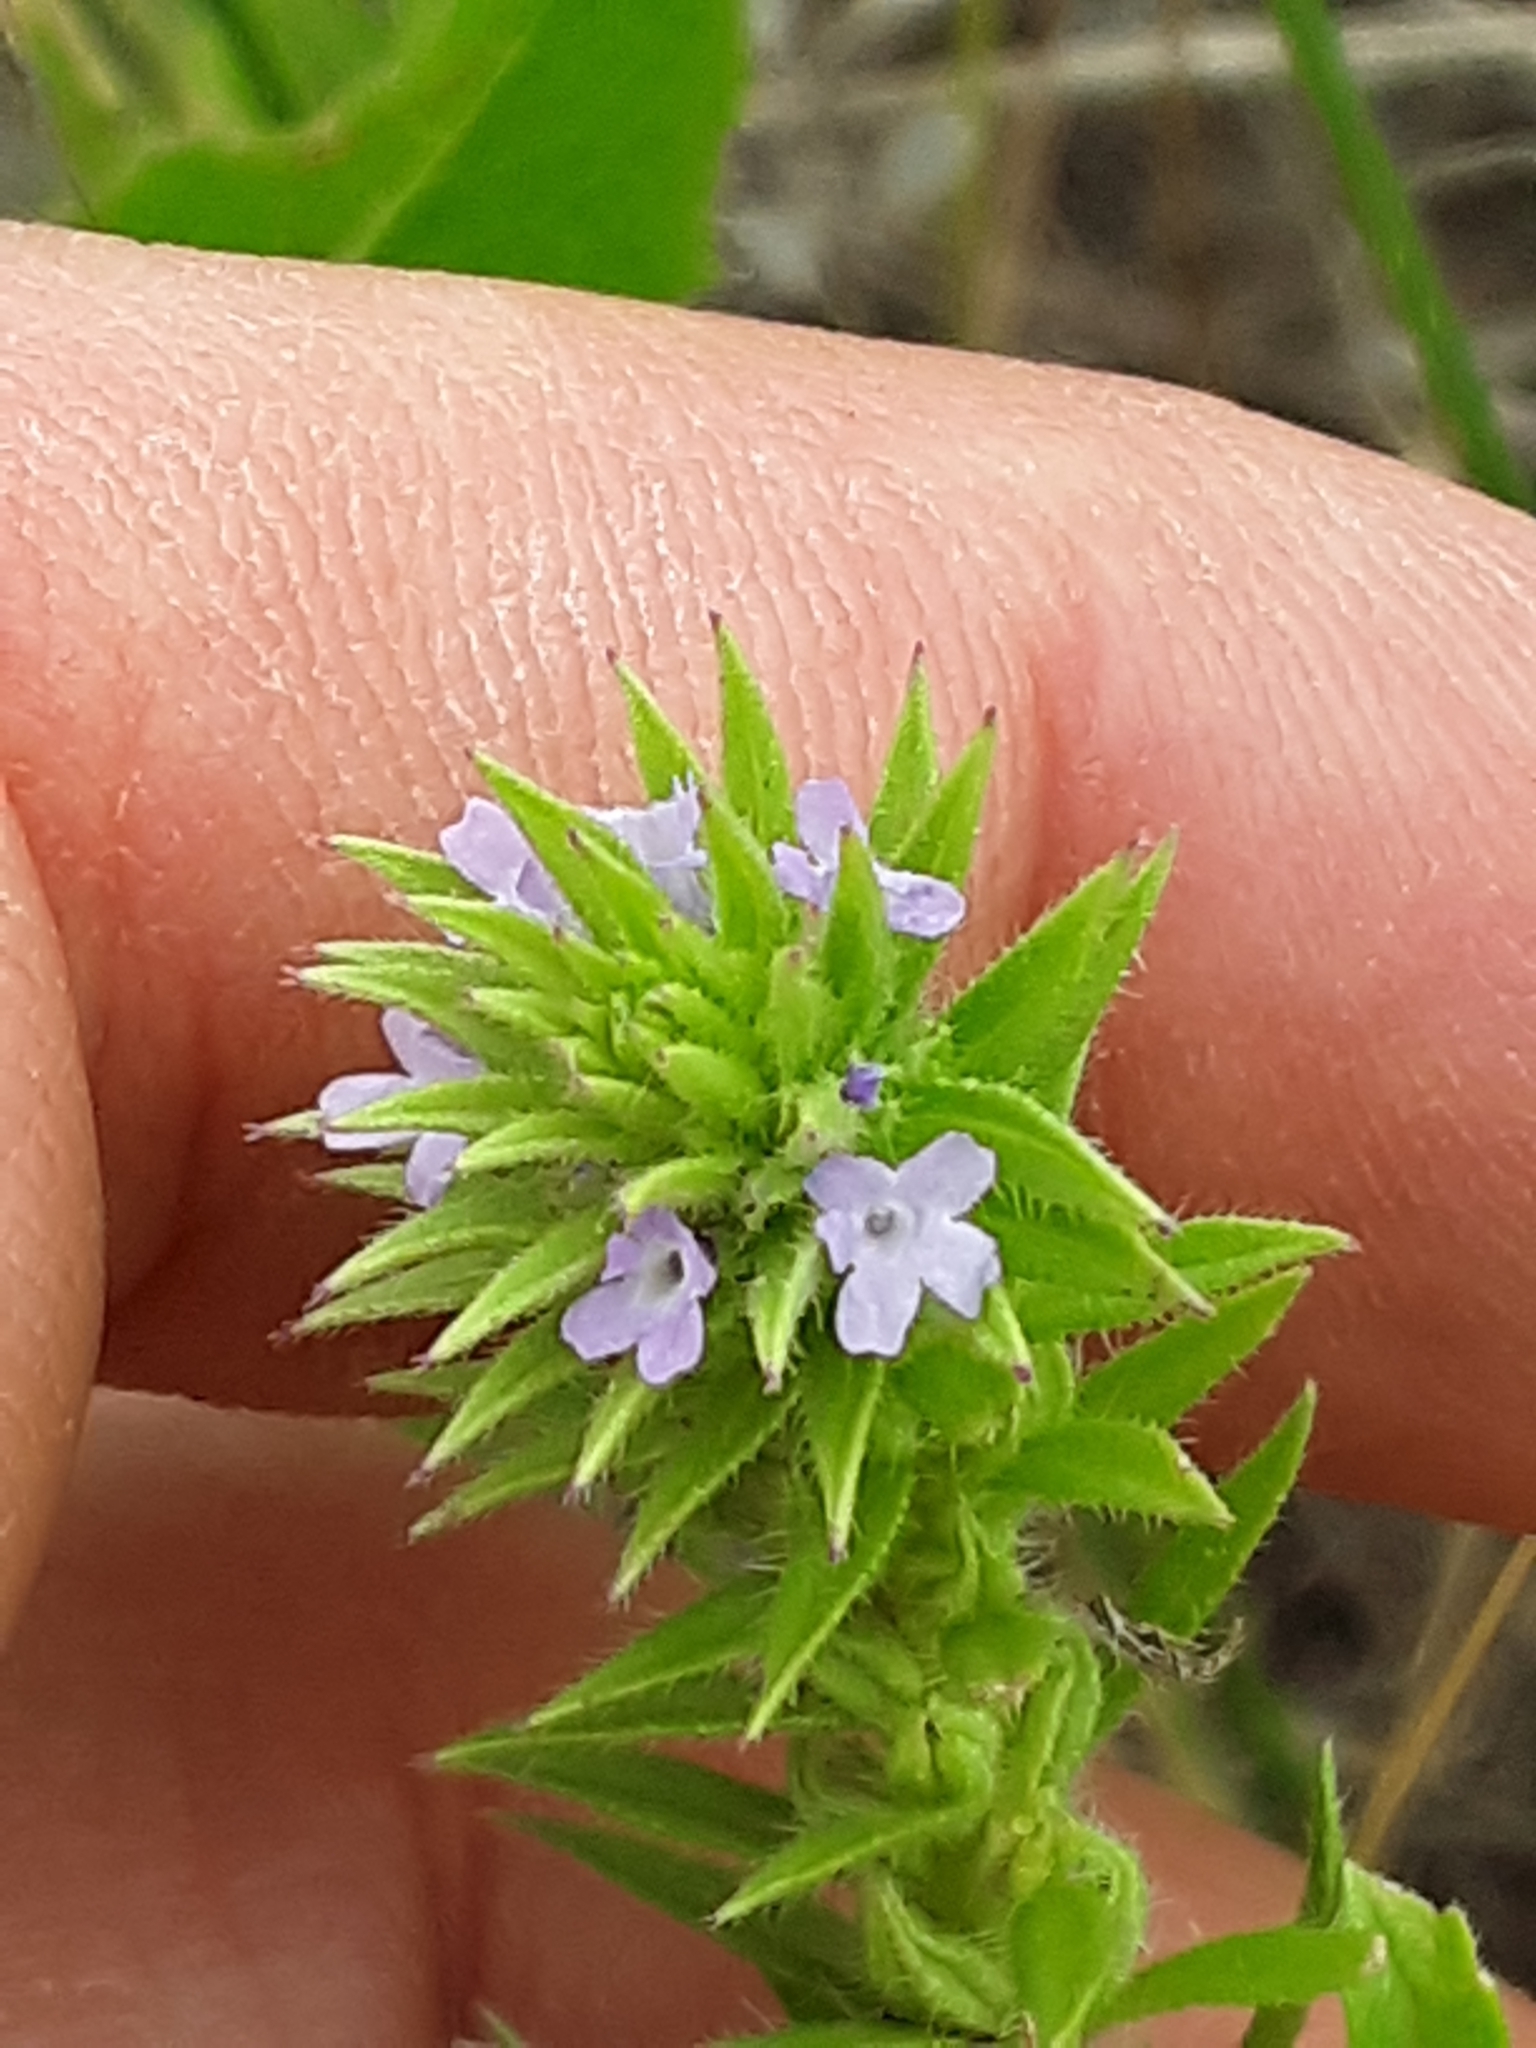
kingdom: Plantae
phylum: Tracheophyta
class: Magnoliopsida
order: Lamiales
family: Verbenaceae
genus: Verbena
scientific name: Verbena bracteata
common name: Bracted vervain
